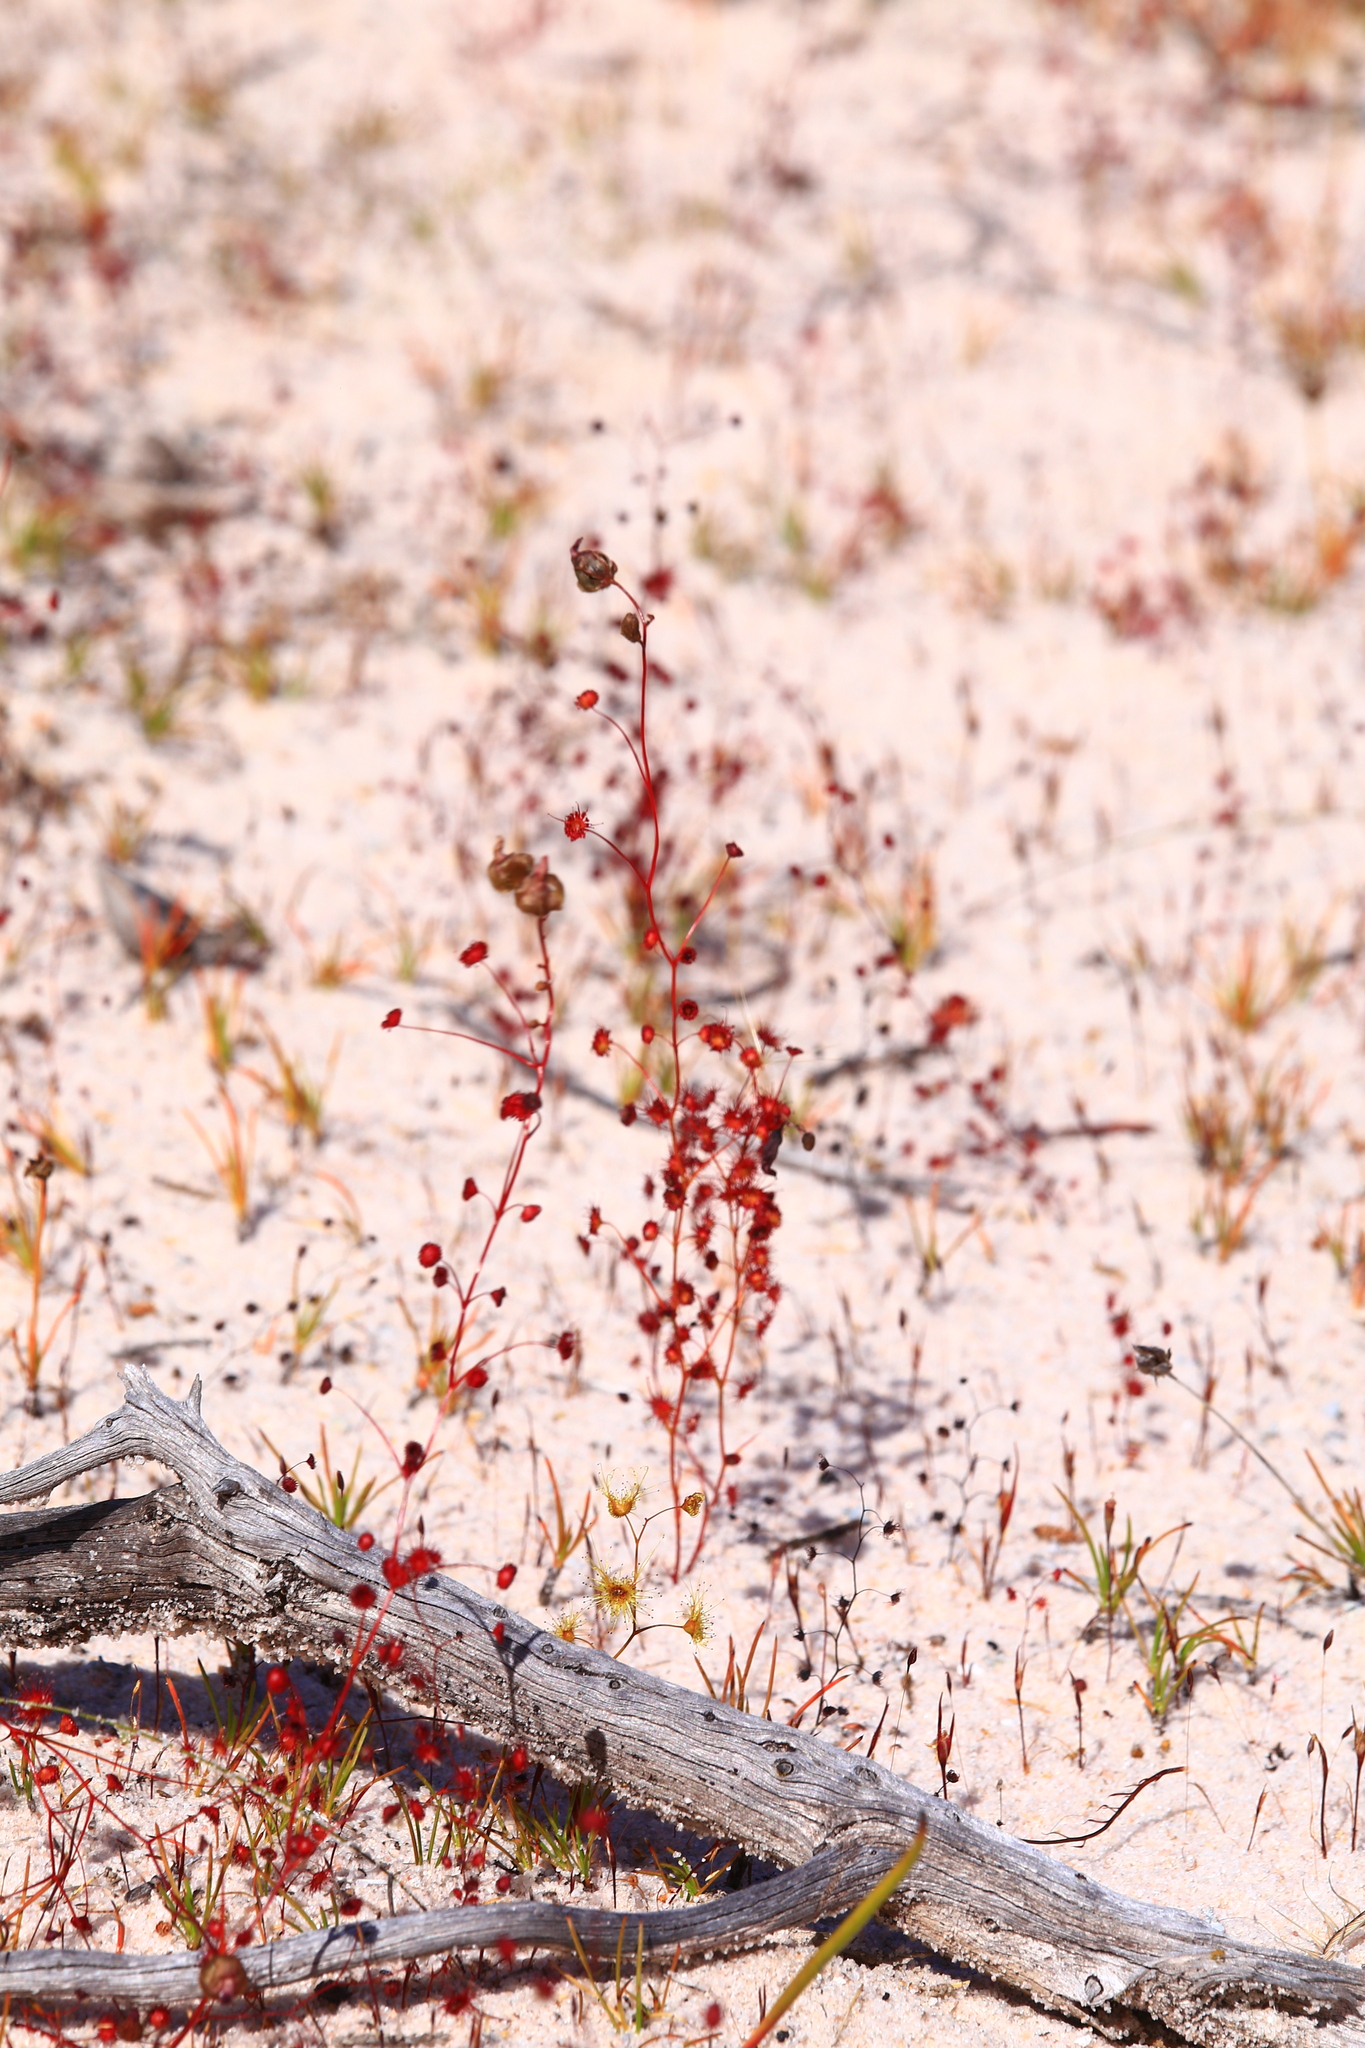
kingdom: Plantae
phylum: Tracheophyta
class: Magnoliopsida
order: Caryophyllales
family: Droseraceae
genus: Drosera
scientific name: Drosera menziesii
